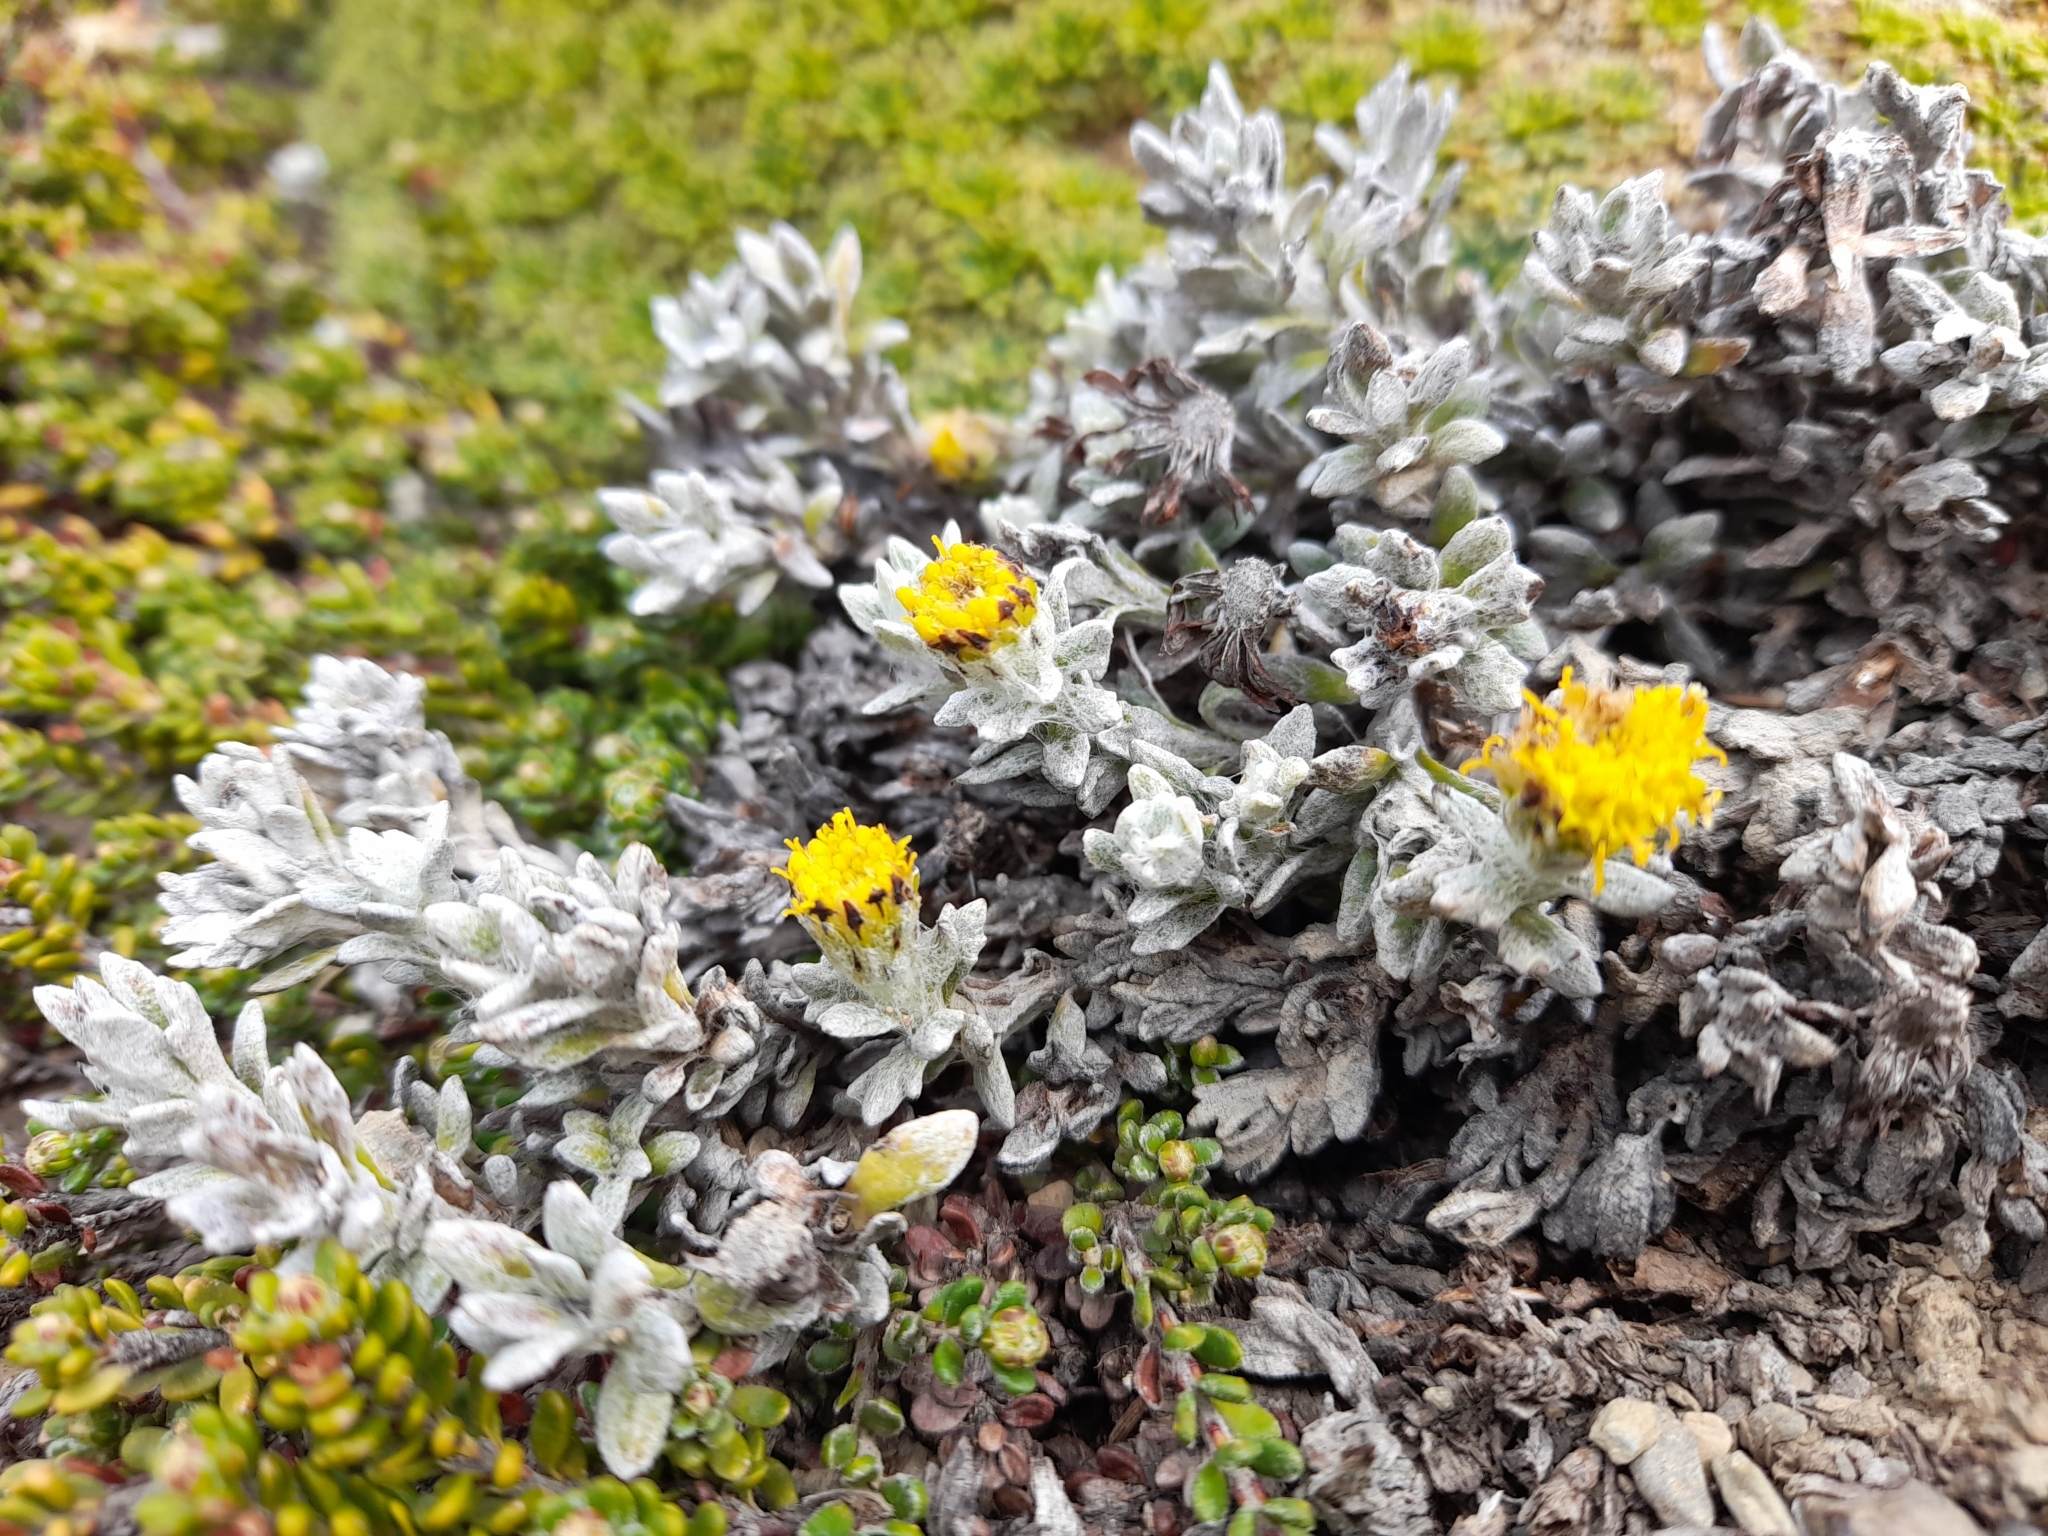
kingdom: Plantae
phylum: Tracheophyta
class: Magnoliopsida
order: Asterales
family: Asteraceae
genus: Senecio
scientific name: Senecio leucomallus
